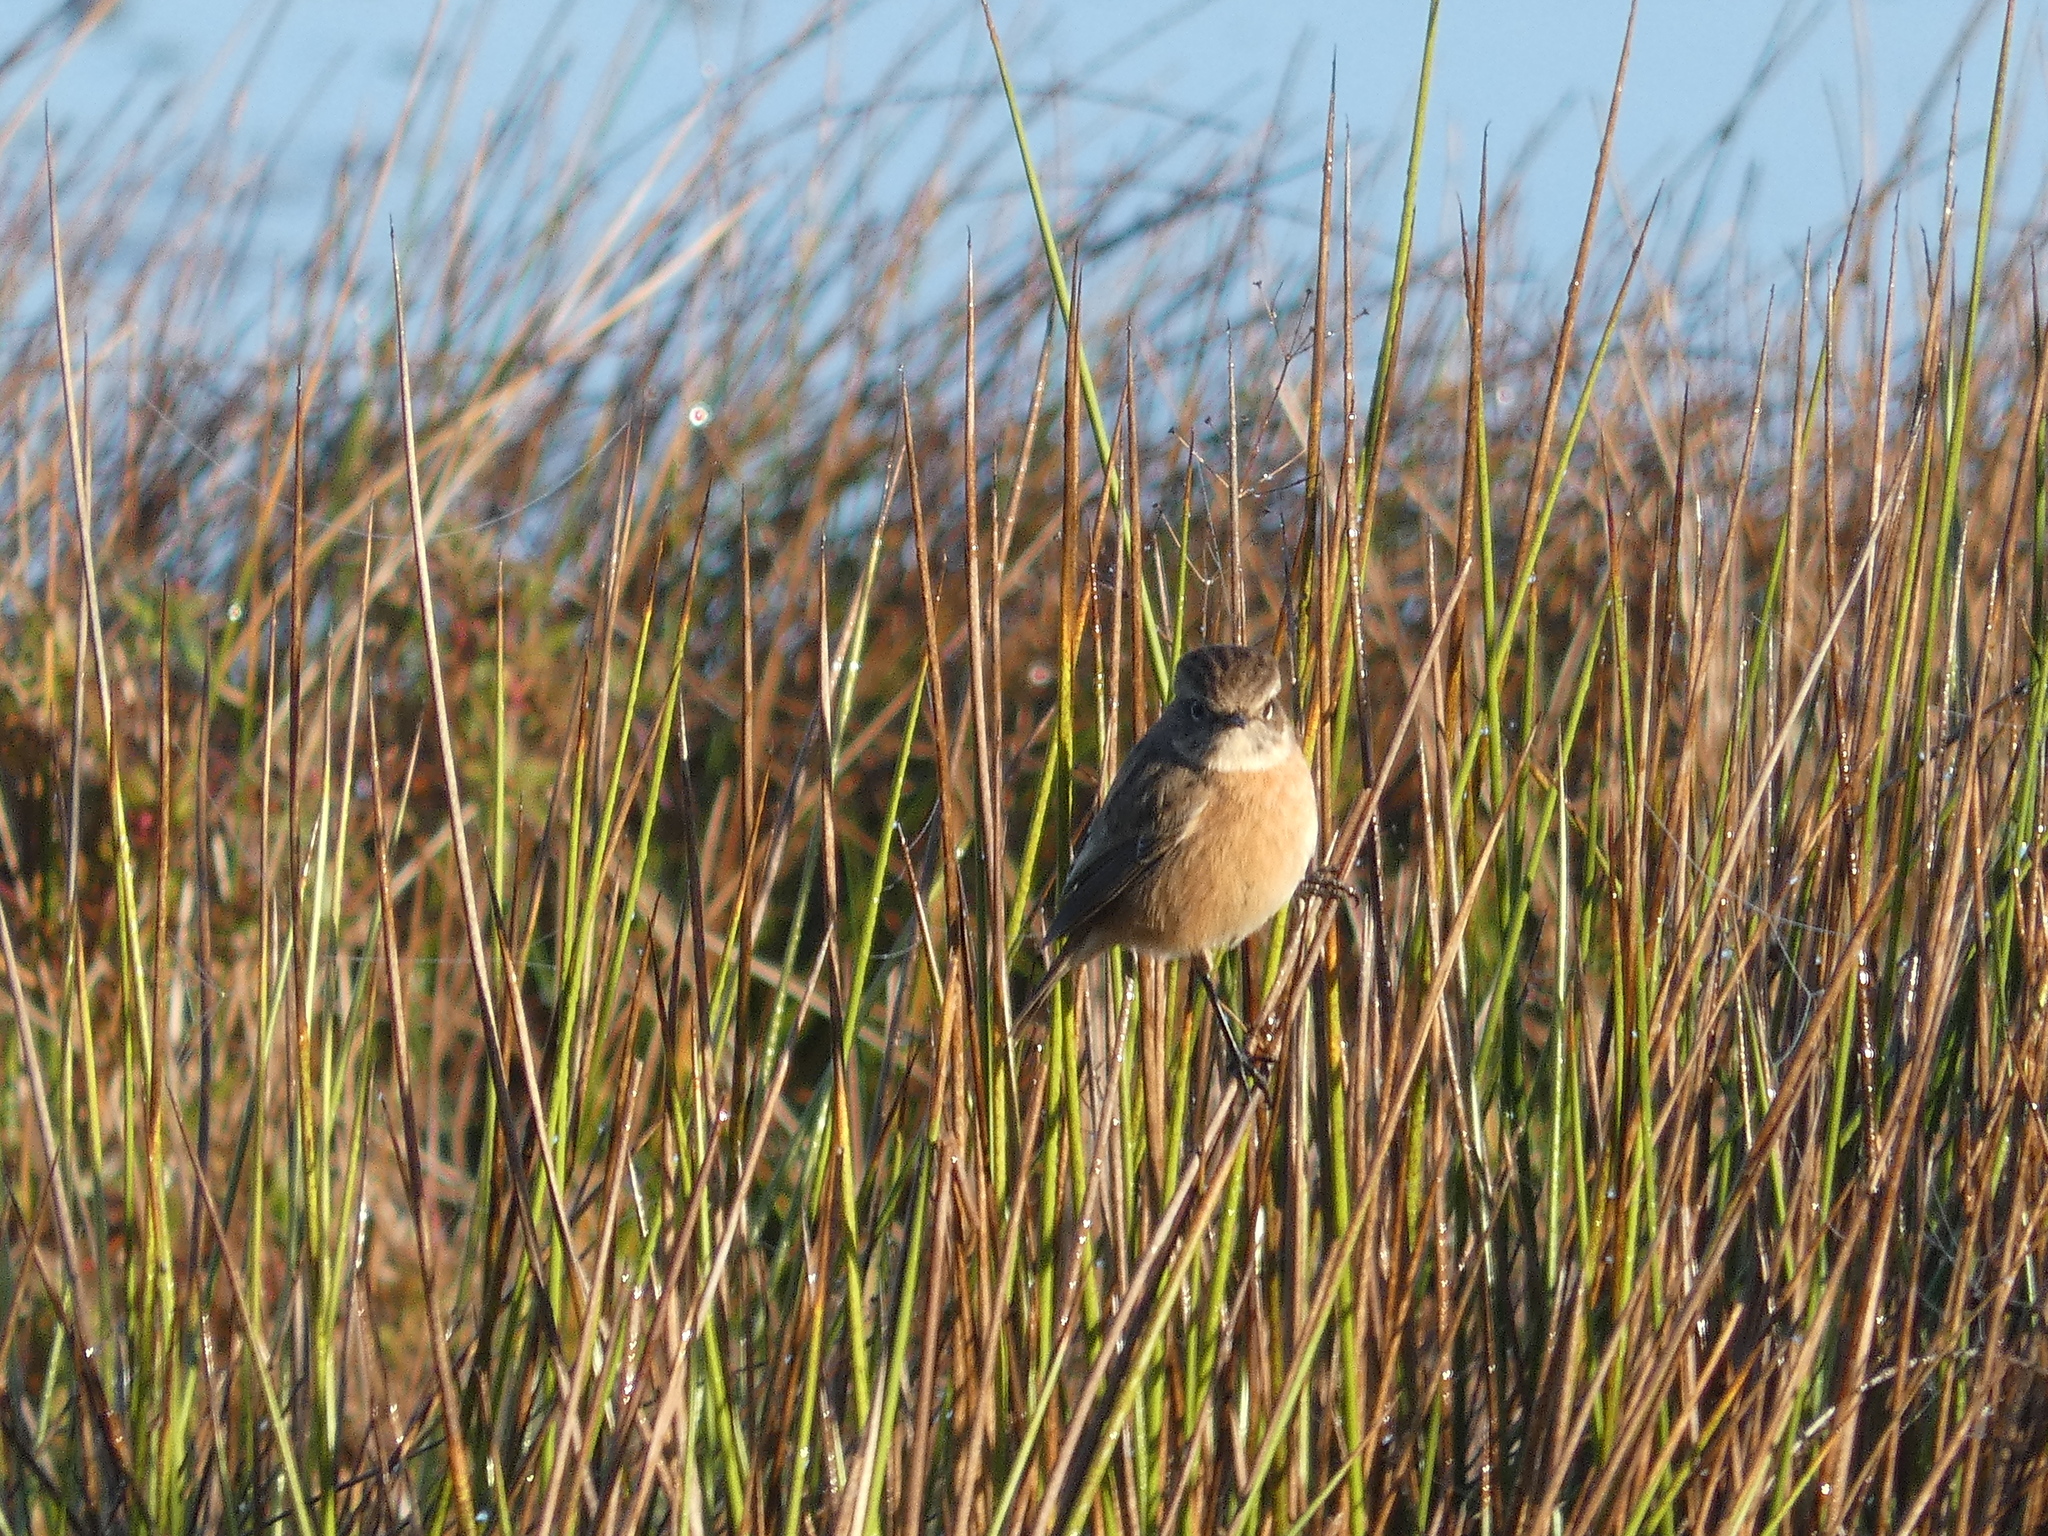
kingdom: Animalia
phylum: Chordata
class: Aves
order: Passeriformes
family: Muscicapidae
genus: Saxicola
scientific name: Saxicola rubicola
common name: European stonechat
